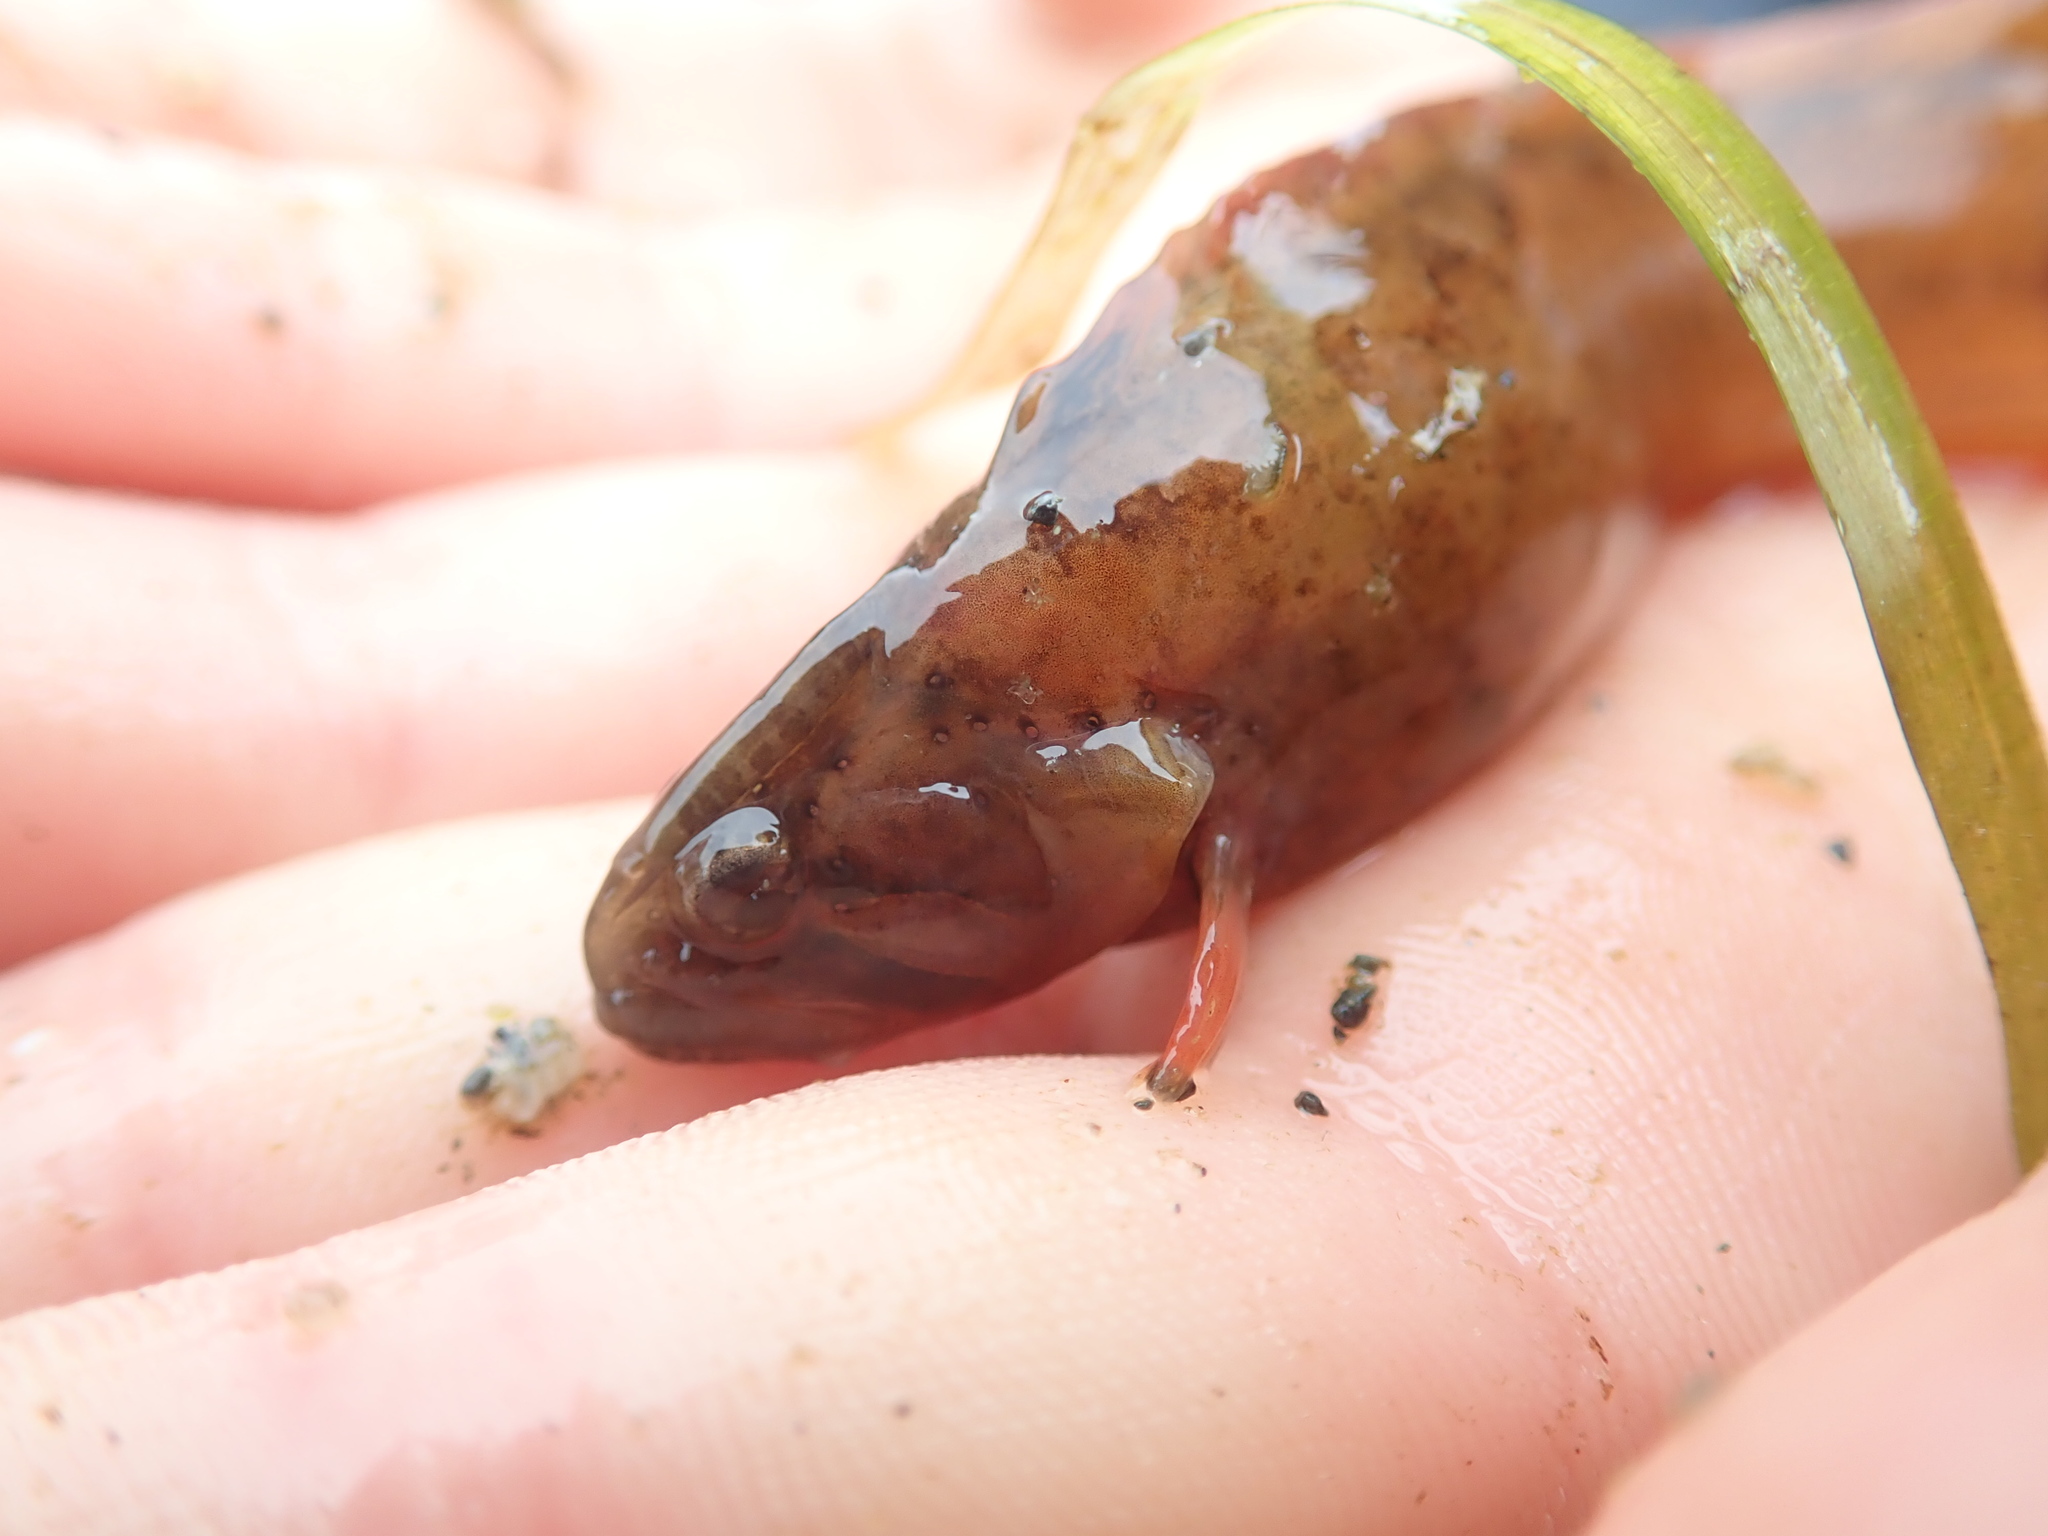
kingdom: Animalia
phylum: Chordata
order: Perciformes
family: Stichaeidae
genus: Anoplarchus
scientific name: Anoplarchus purpurescens
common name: High cockscomb
